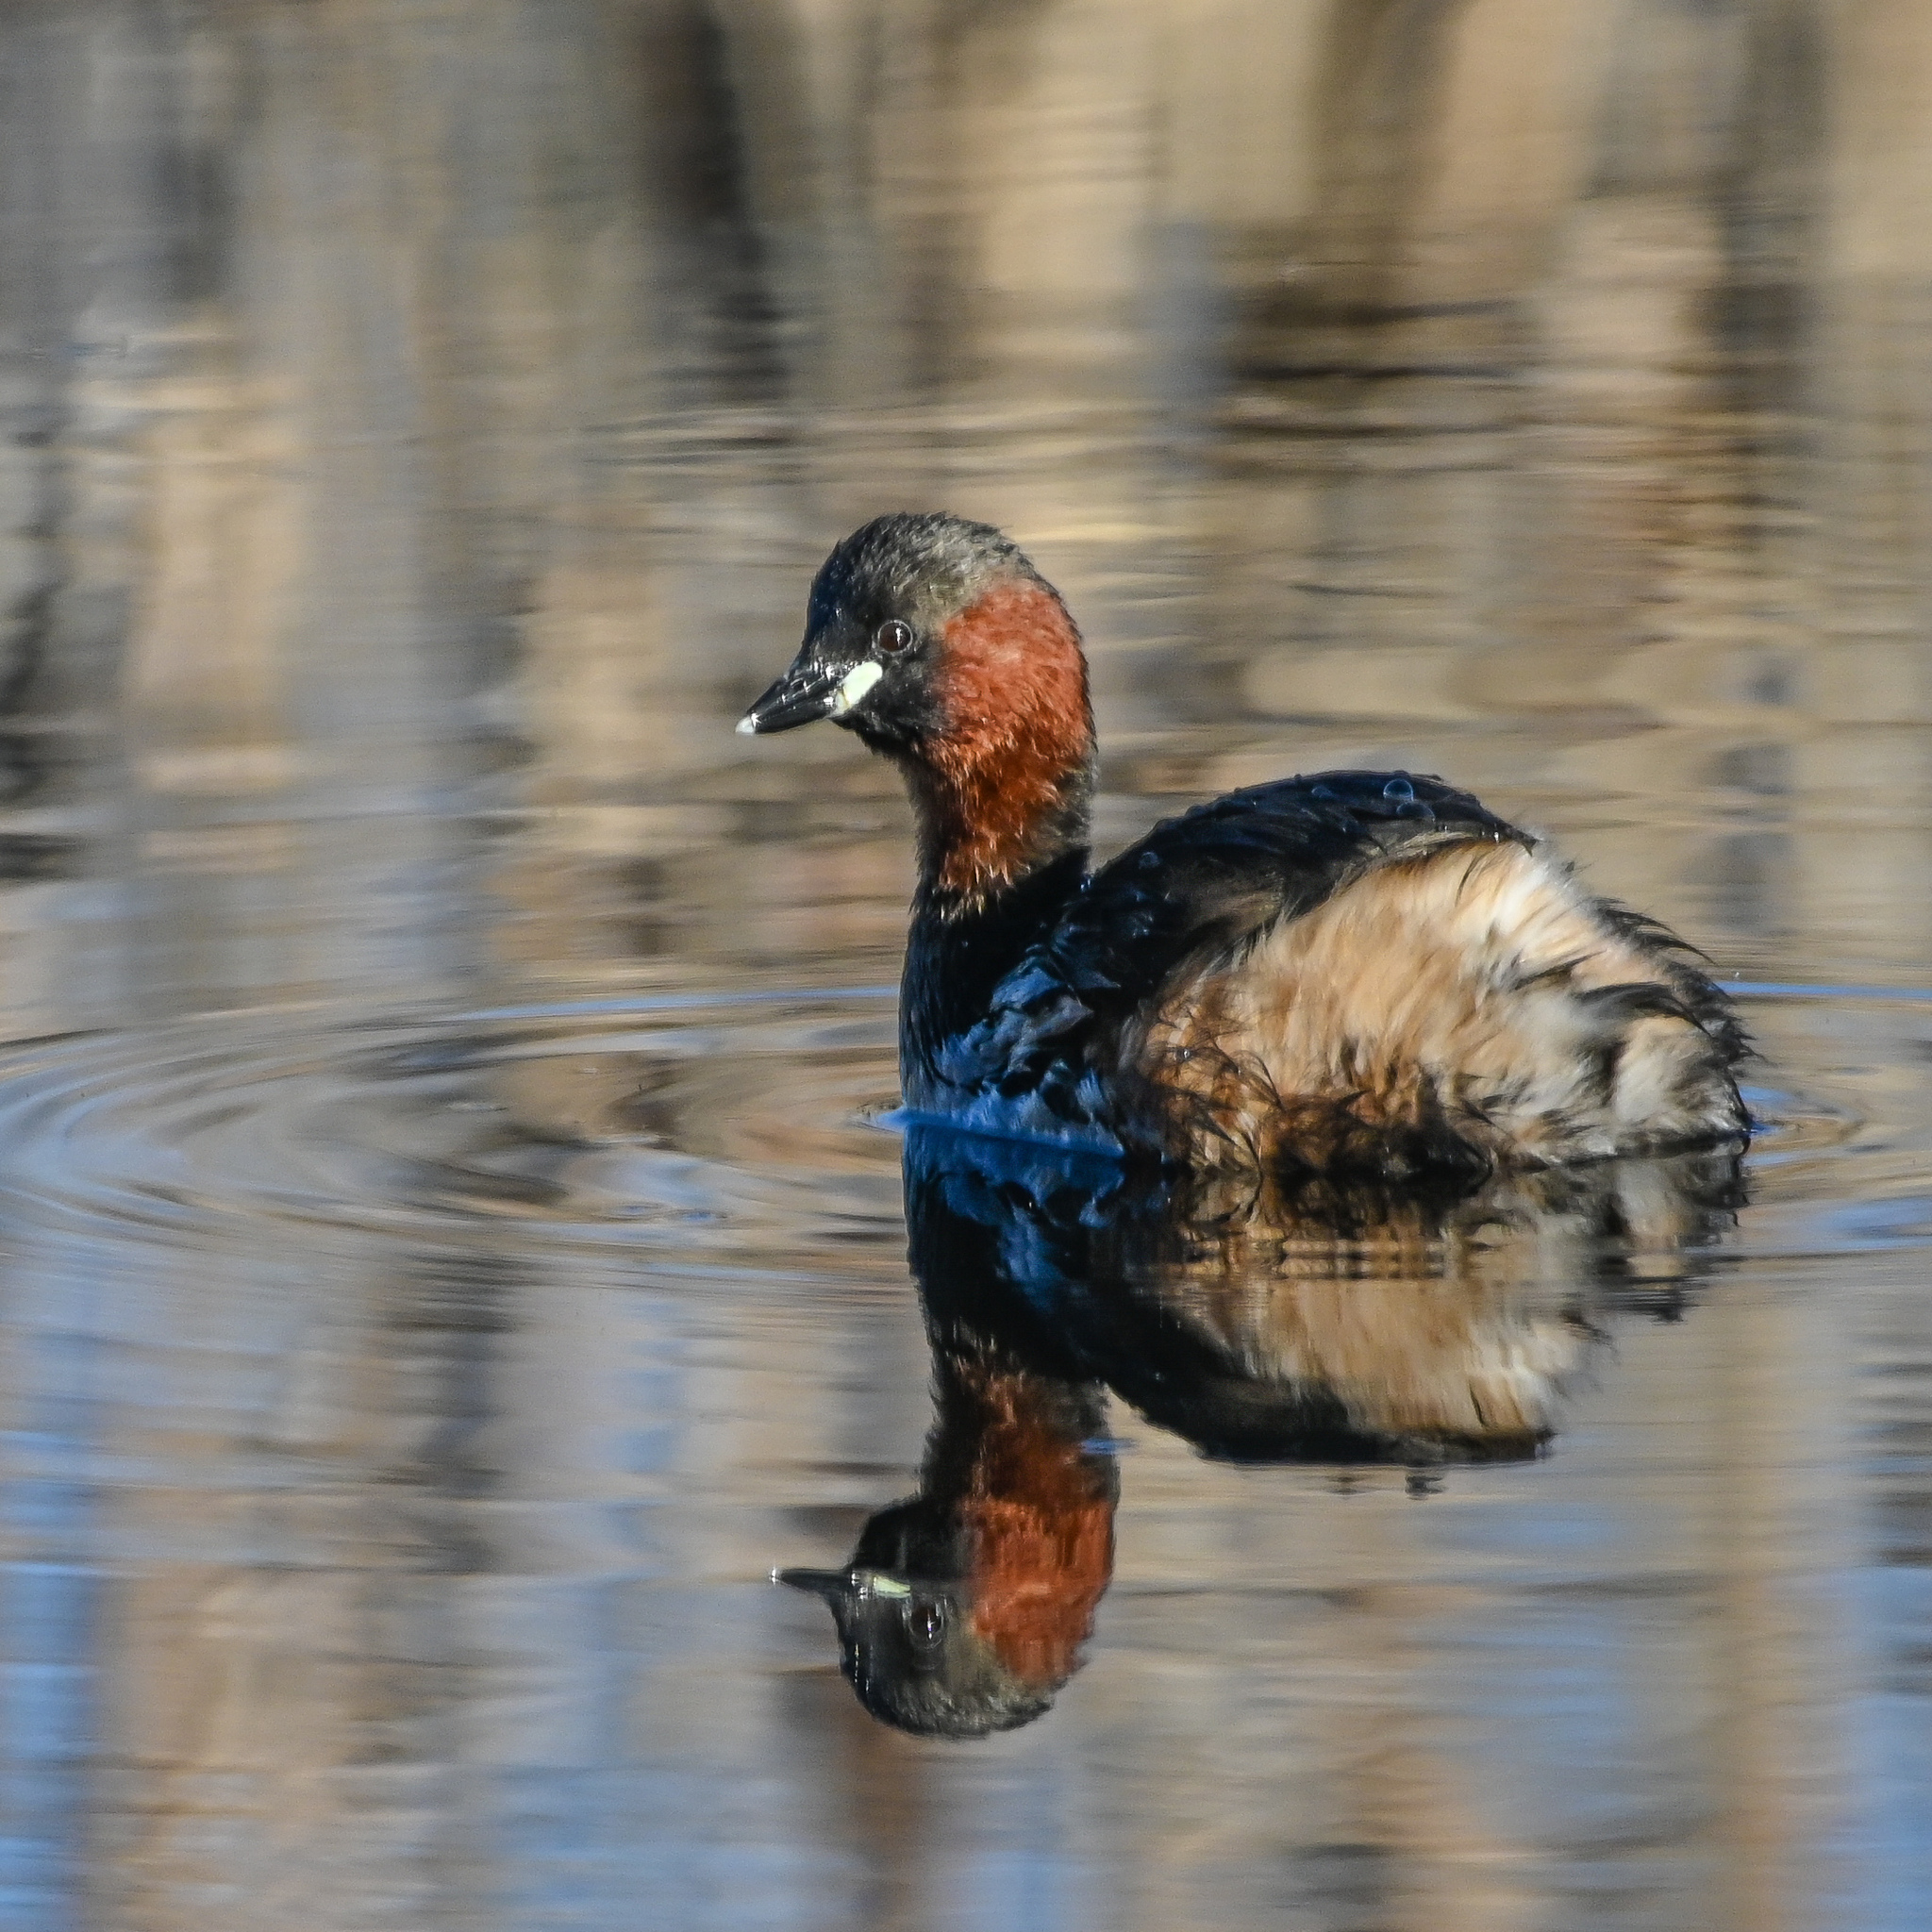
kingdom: Animalia
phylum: Chordata
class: Aves
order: Podicipediformes
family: Podicipedidae
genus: Tachybaptus
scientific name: Tachybaptus ruficollis
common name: Little grebe
